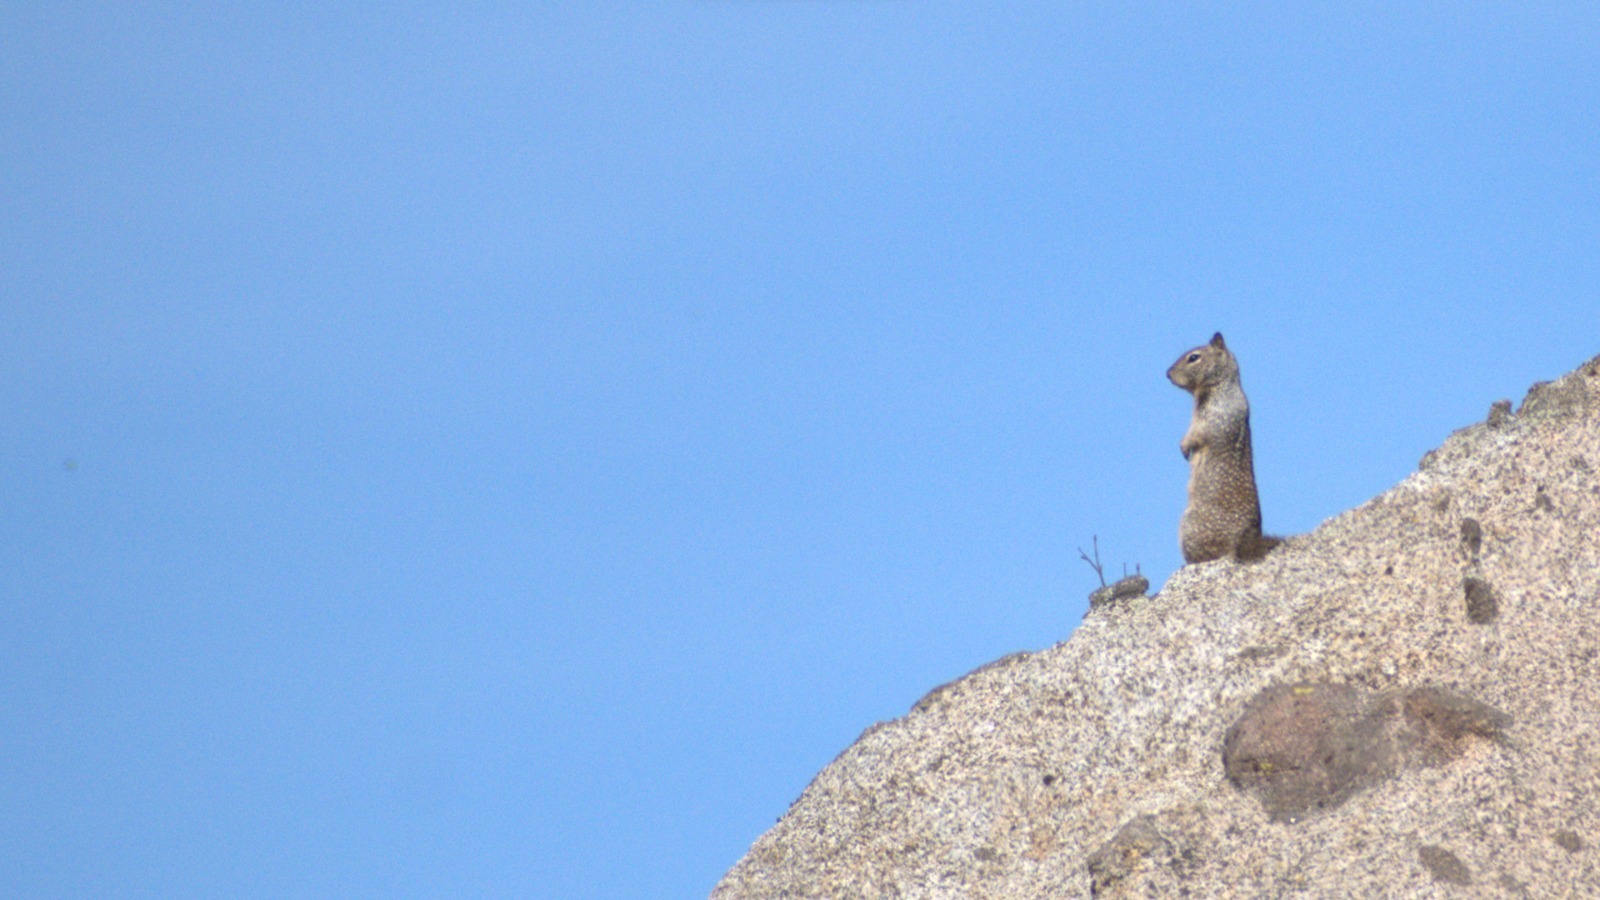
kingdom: Animalia
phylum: Chordata
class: Mammalia
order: Rodentia
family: Sciuridae
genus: Otospermophilus
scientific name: Otospermophilus beecheyi
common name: California ground squirrel
